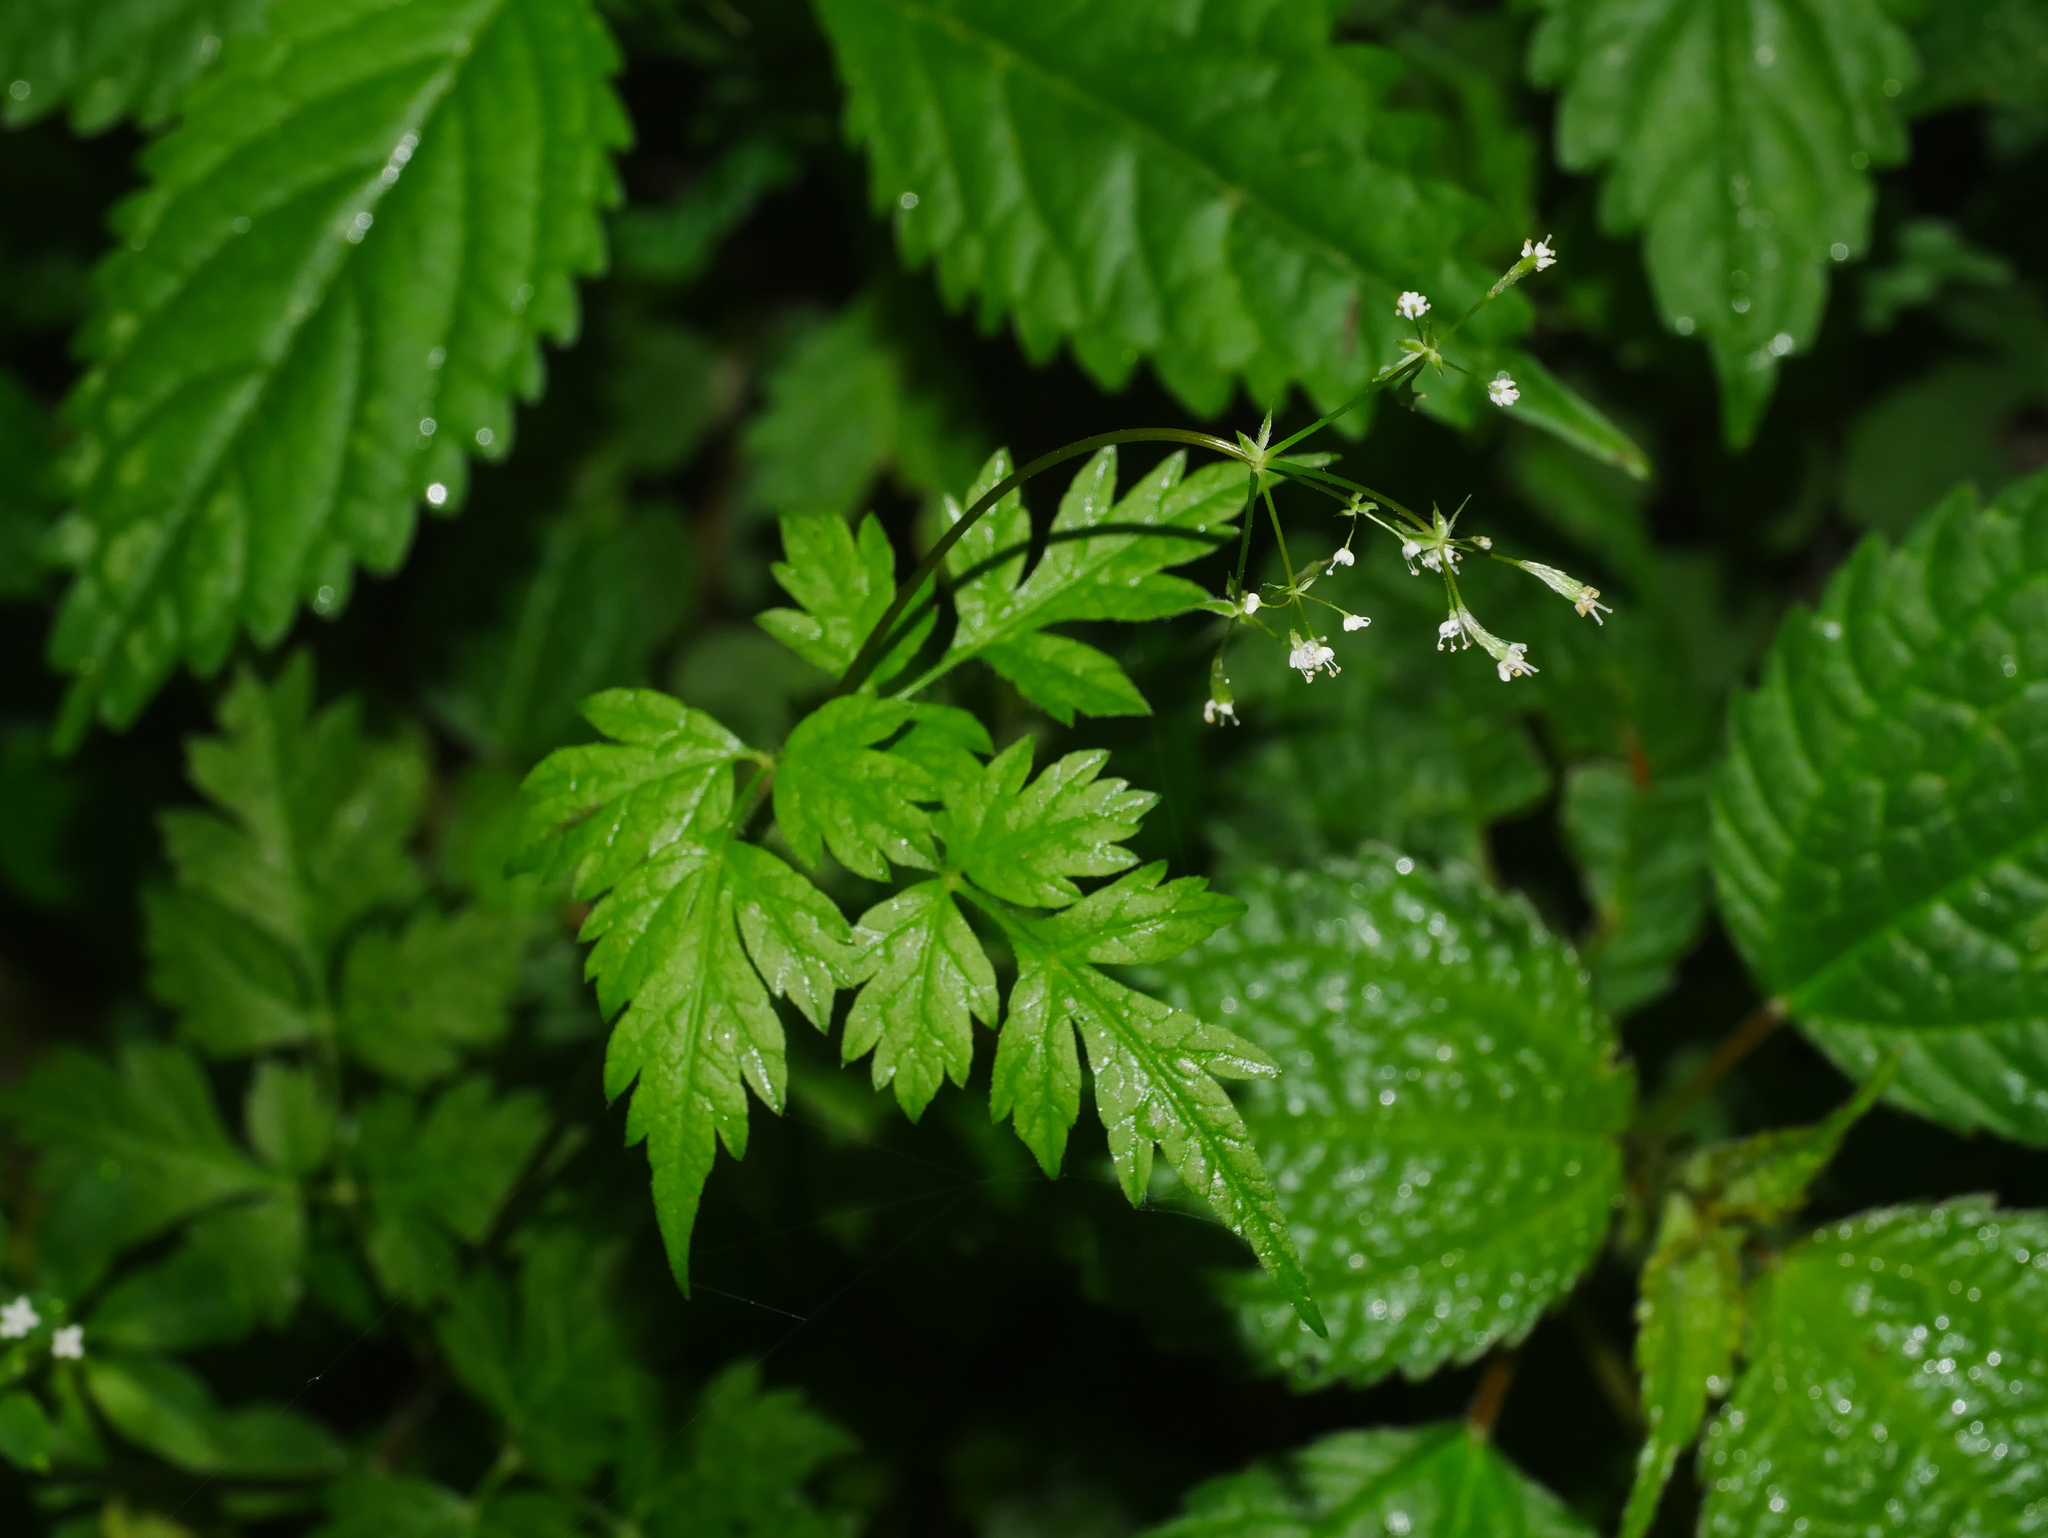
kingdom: Plantae
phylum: Tracheophyta
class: Magnoliopsida
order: Apiales
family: Apiaceae
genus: Osmorhiza
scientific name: Osmorhiza aristata
